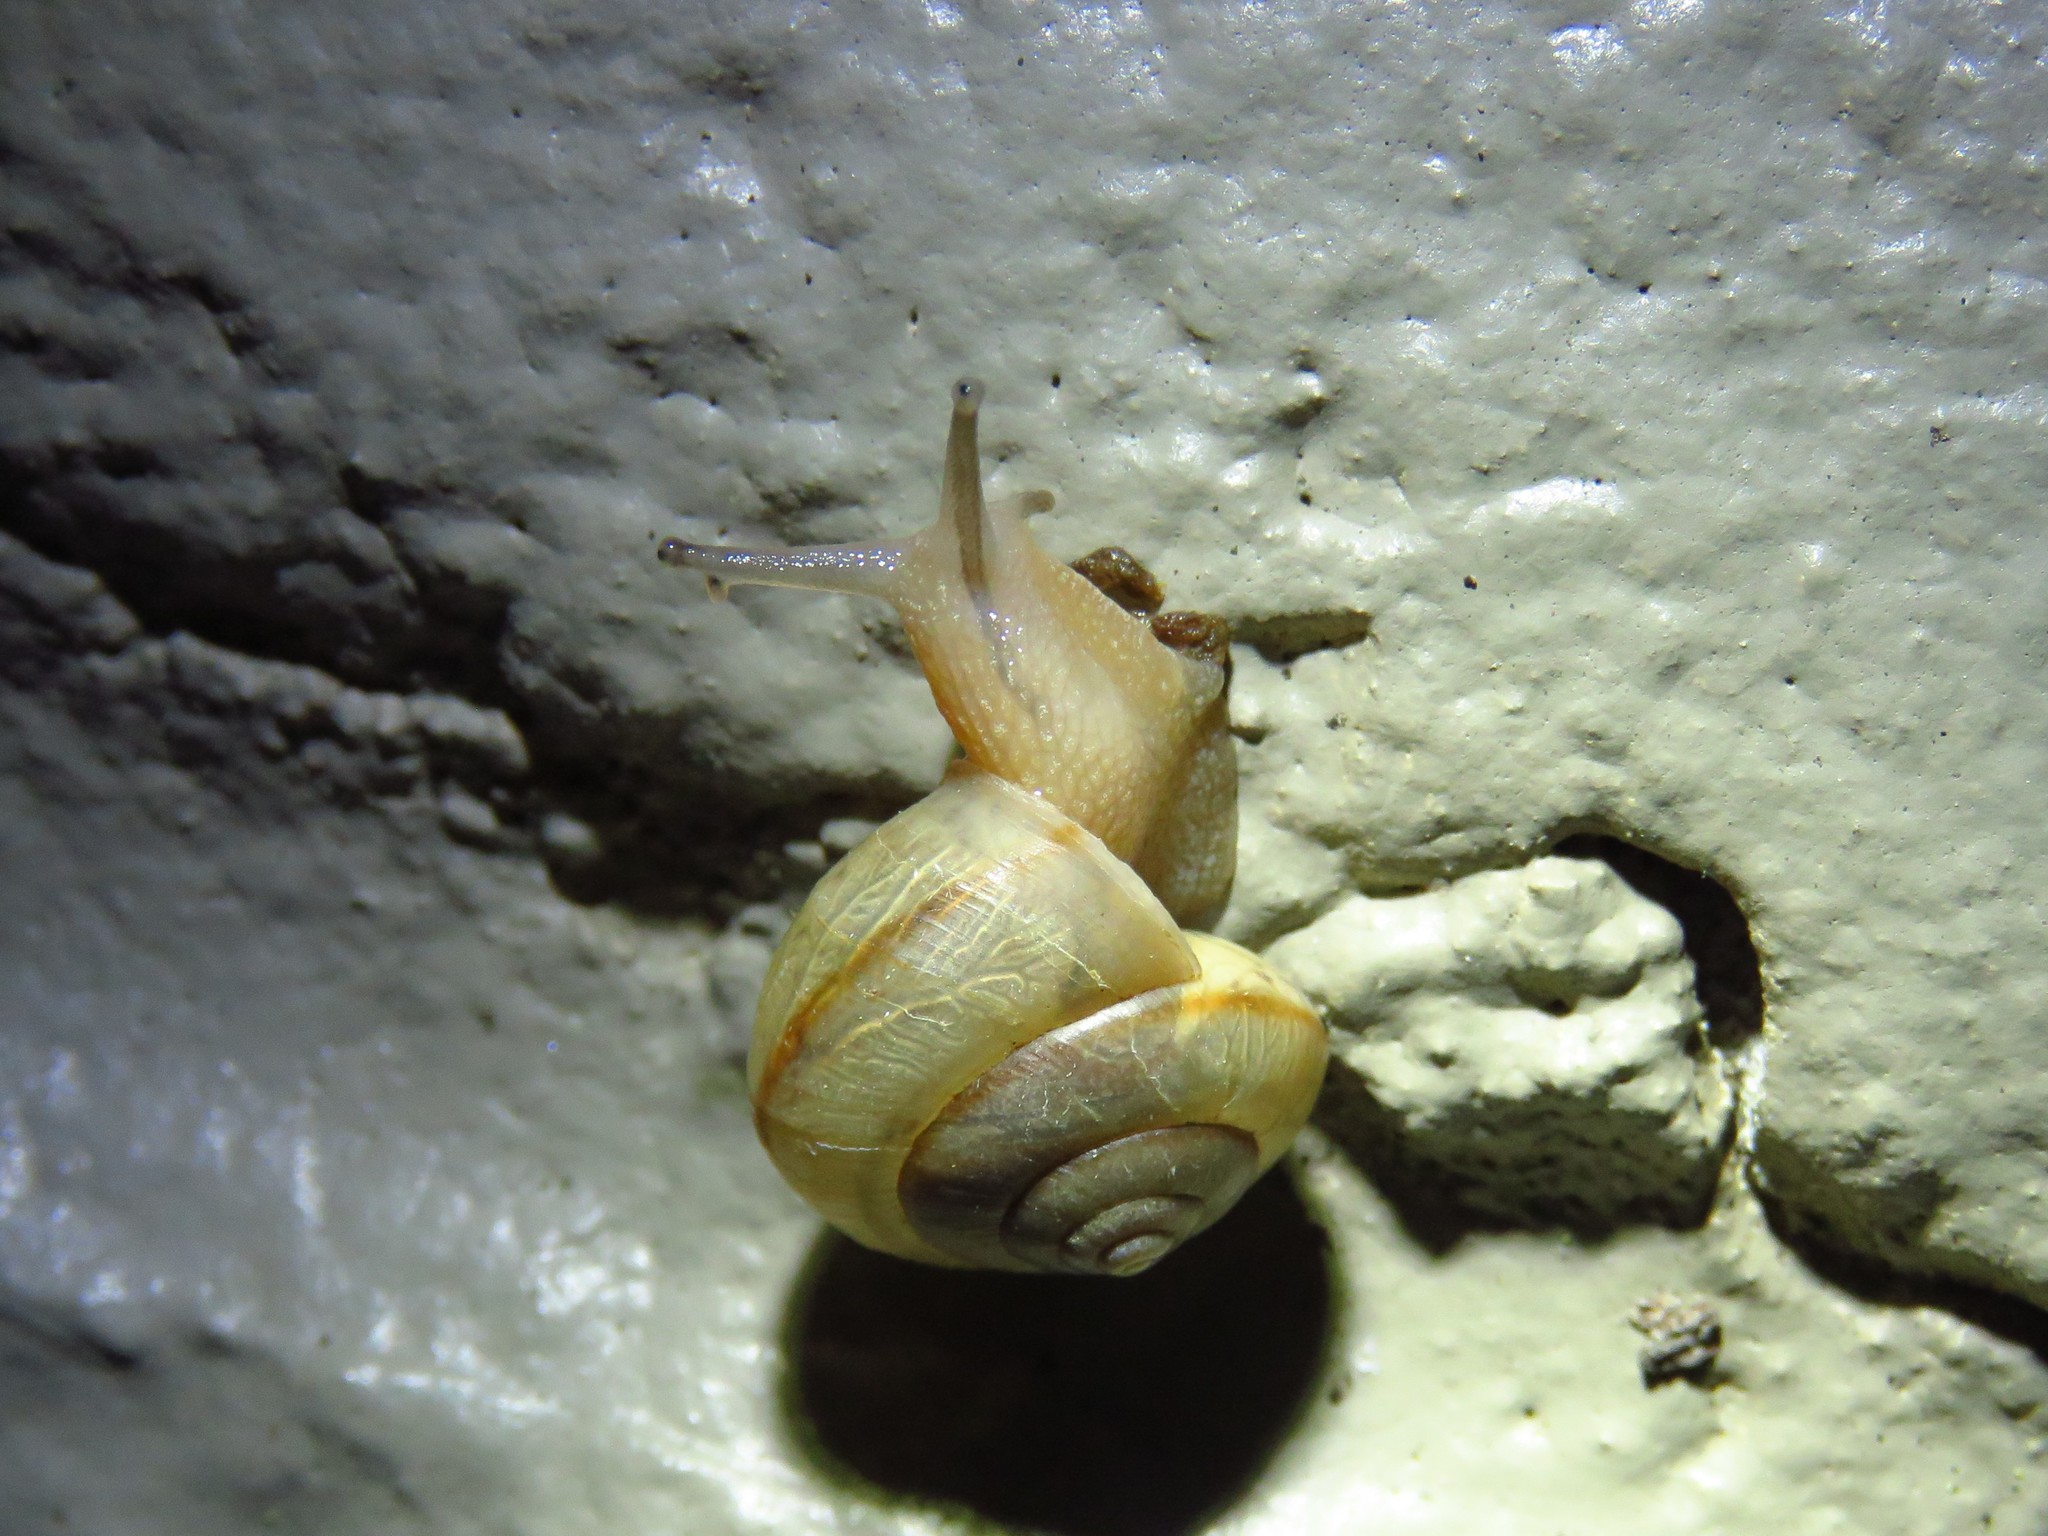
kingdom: Animalia
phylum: Mollusca
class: Gastropoda
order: Stylommatophora
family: Camaenidae
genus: Bradybaena
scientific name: Bradybaena similaris
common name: Asian trampsnail
